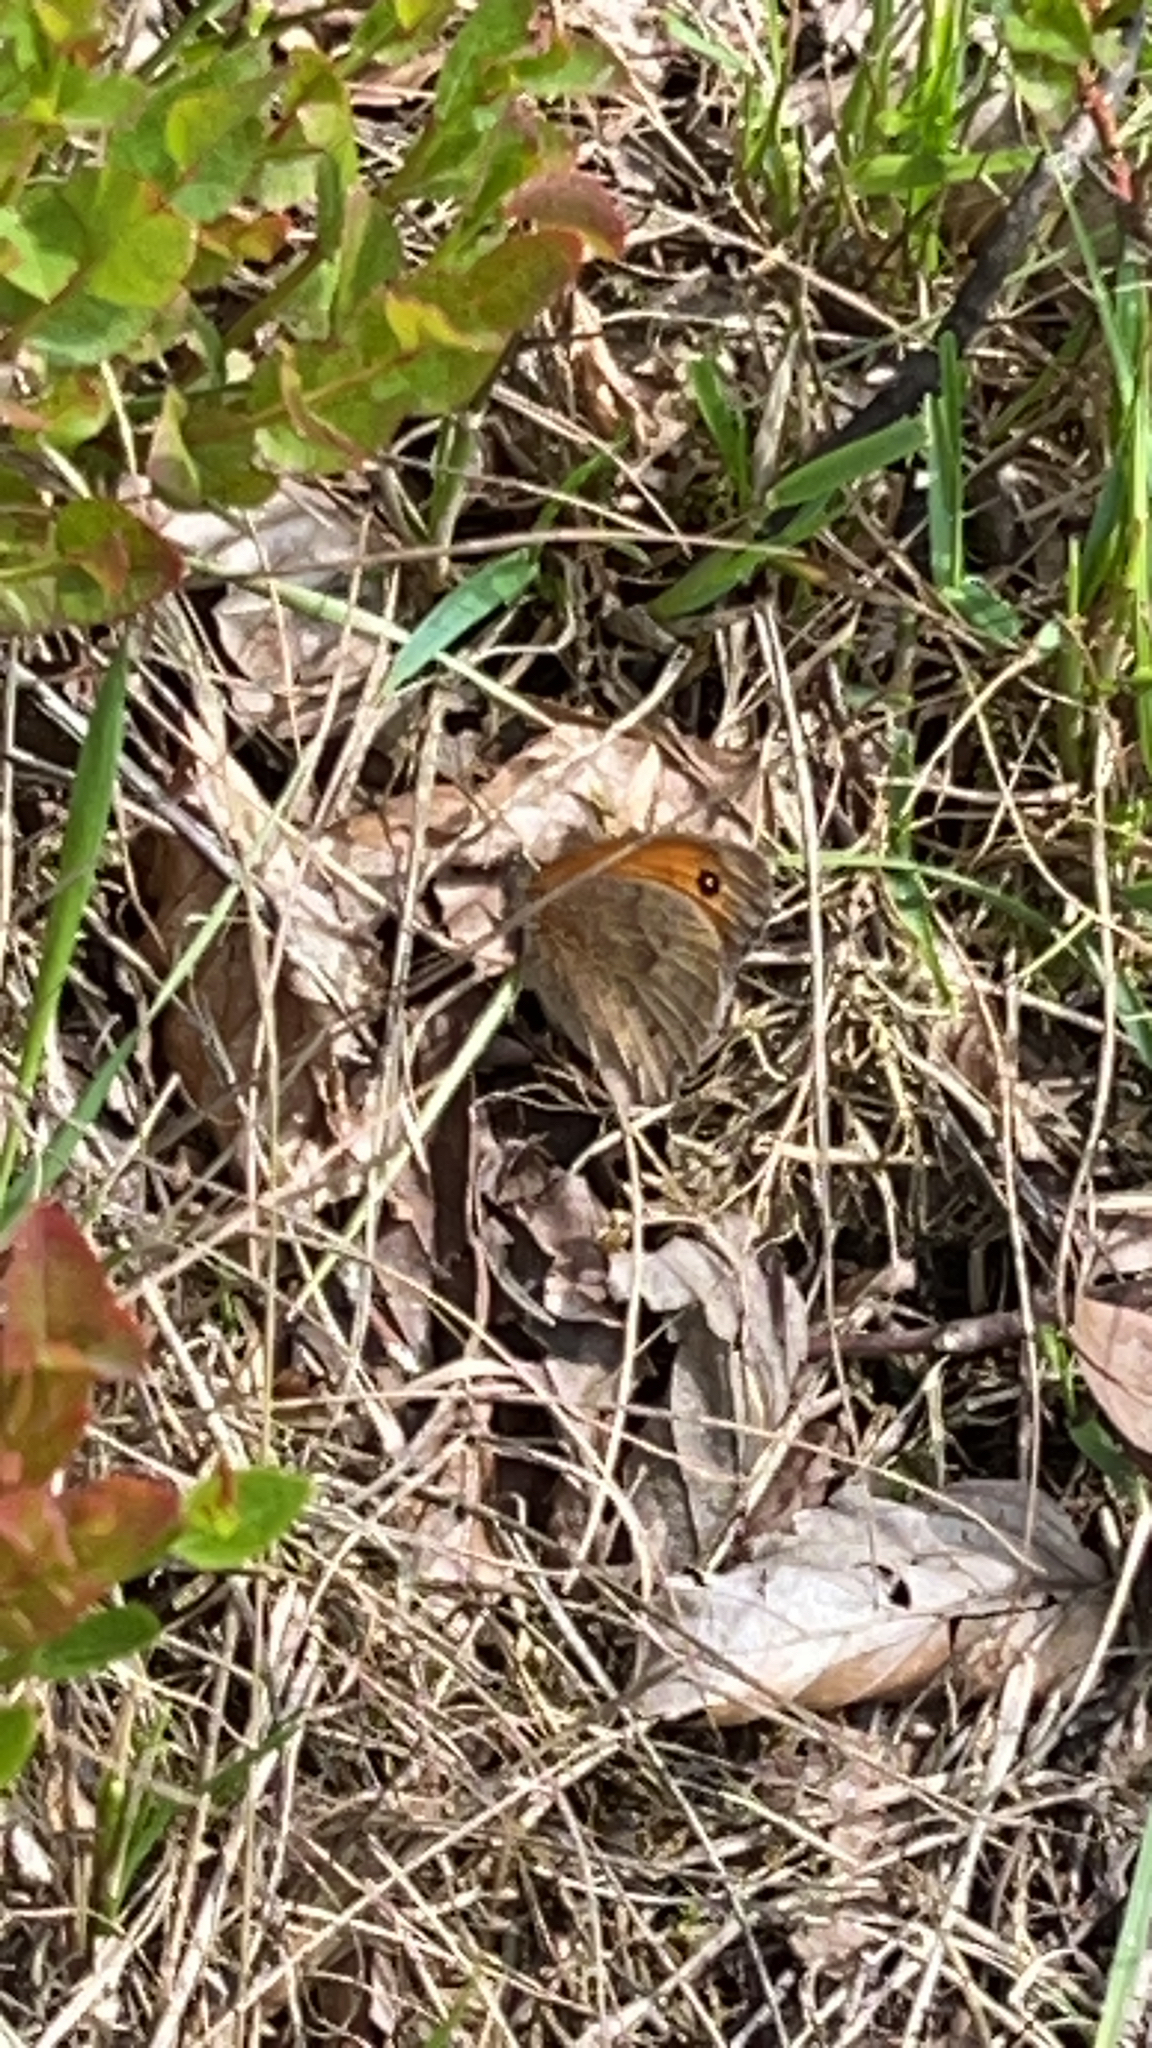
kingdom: Animalia
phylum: Arthropoda
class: Insecta
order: Lepidoptera
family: Nymphalidae
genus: Maniola
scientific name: Maniola jurtina
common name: Meadow brown
